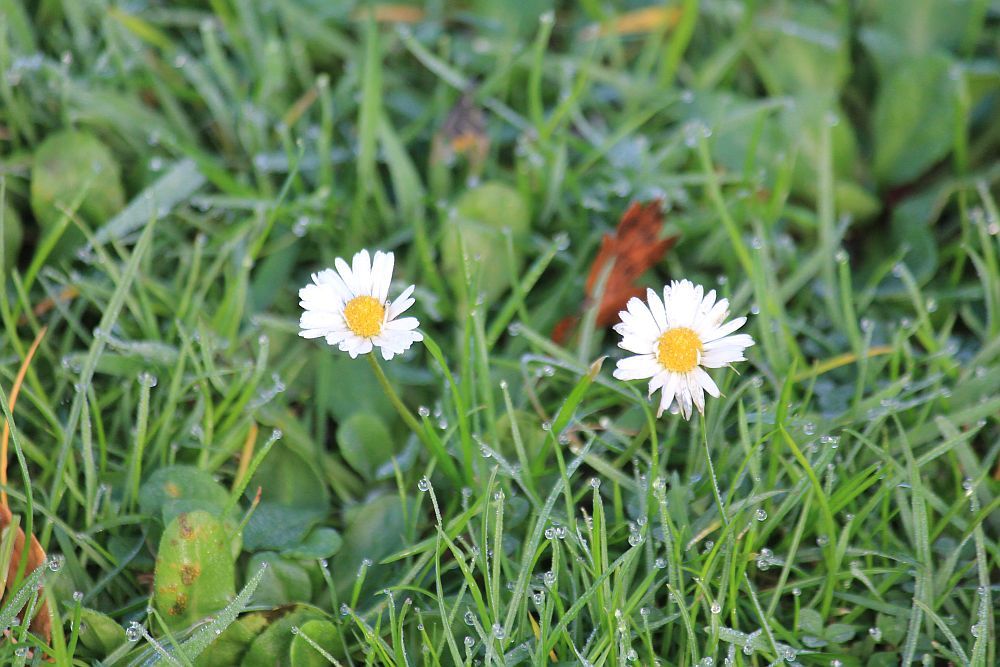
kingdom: Plantae
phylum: Tracheophyta
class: Magnoliopsida
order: Asterales
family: Asteraceae
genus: Bellis
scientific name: Bellis perennis
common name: Lawndaisy
